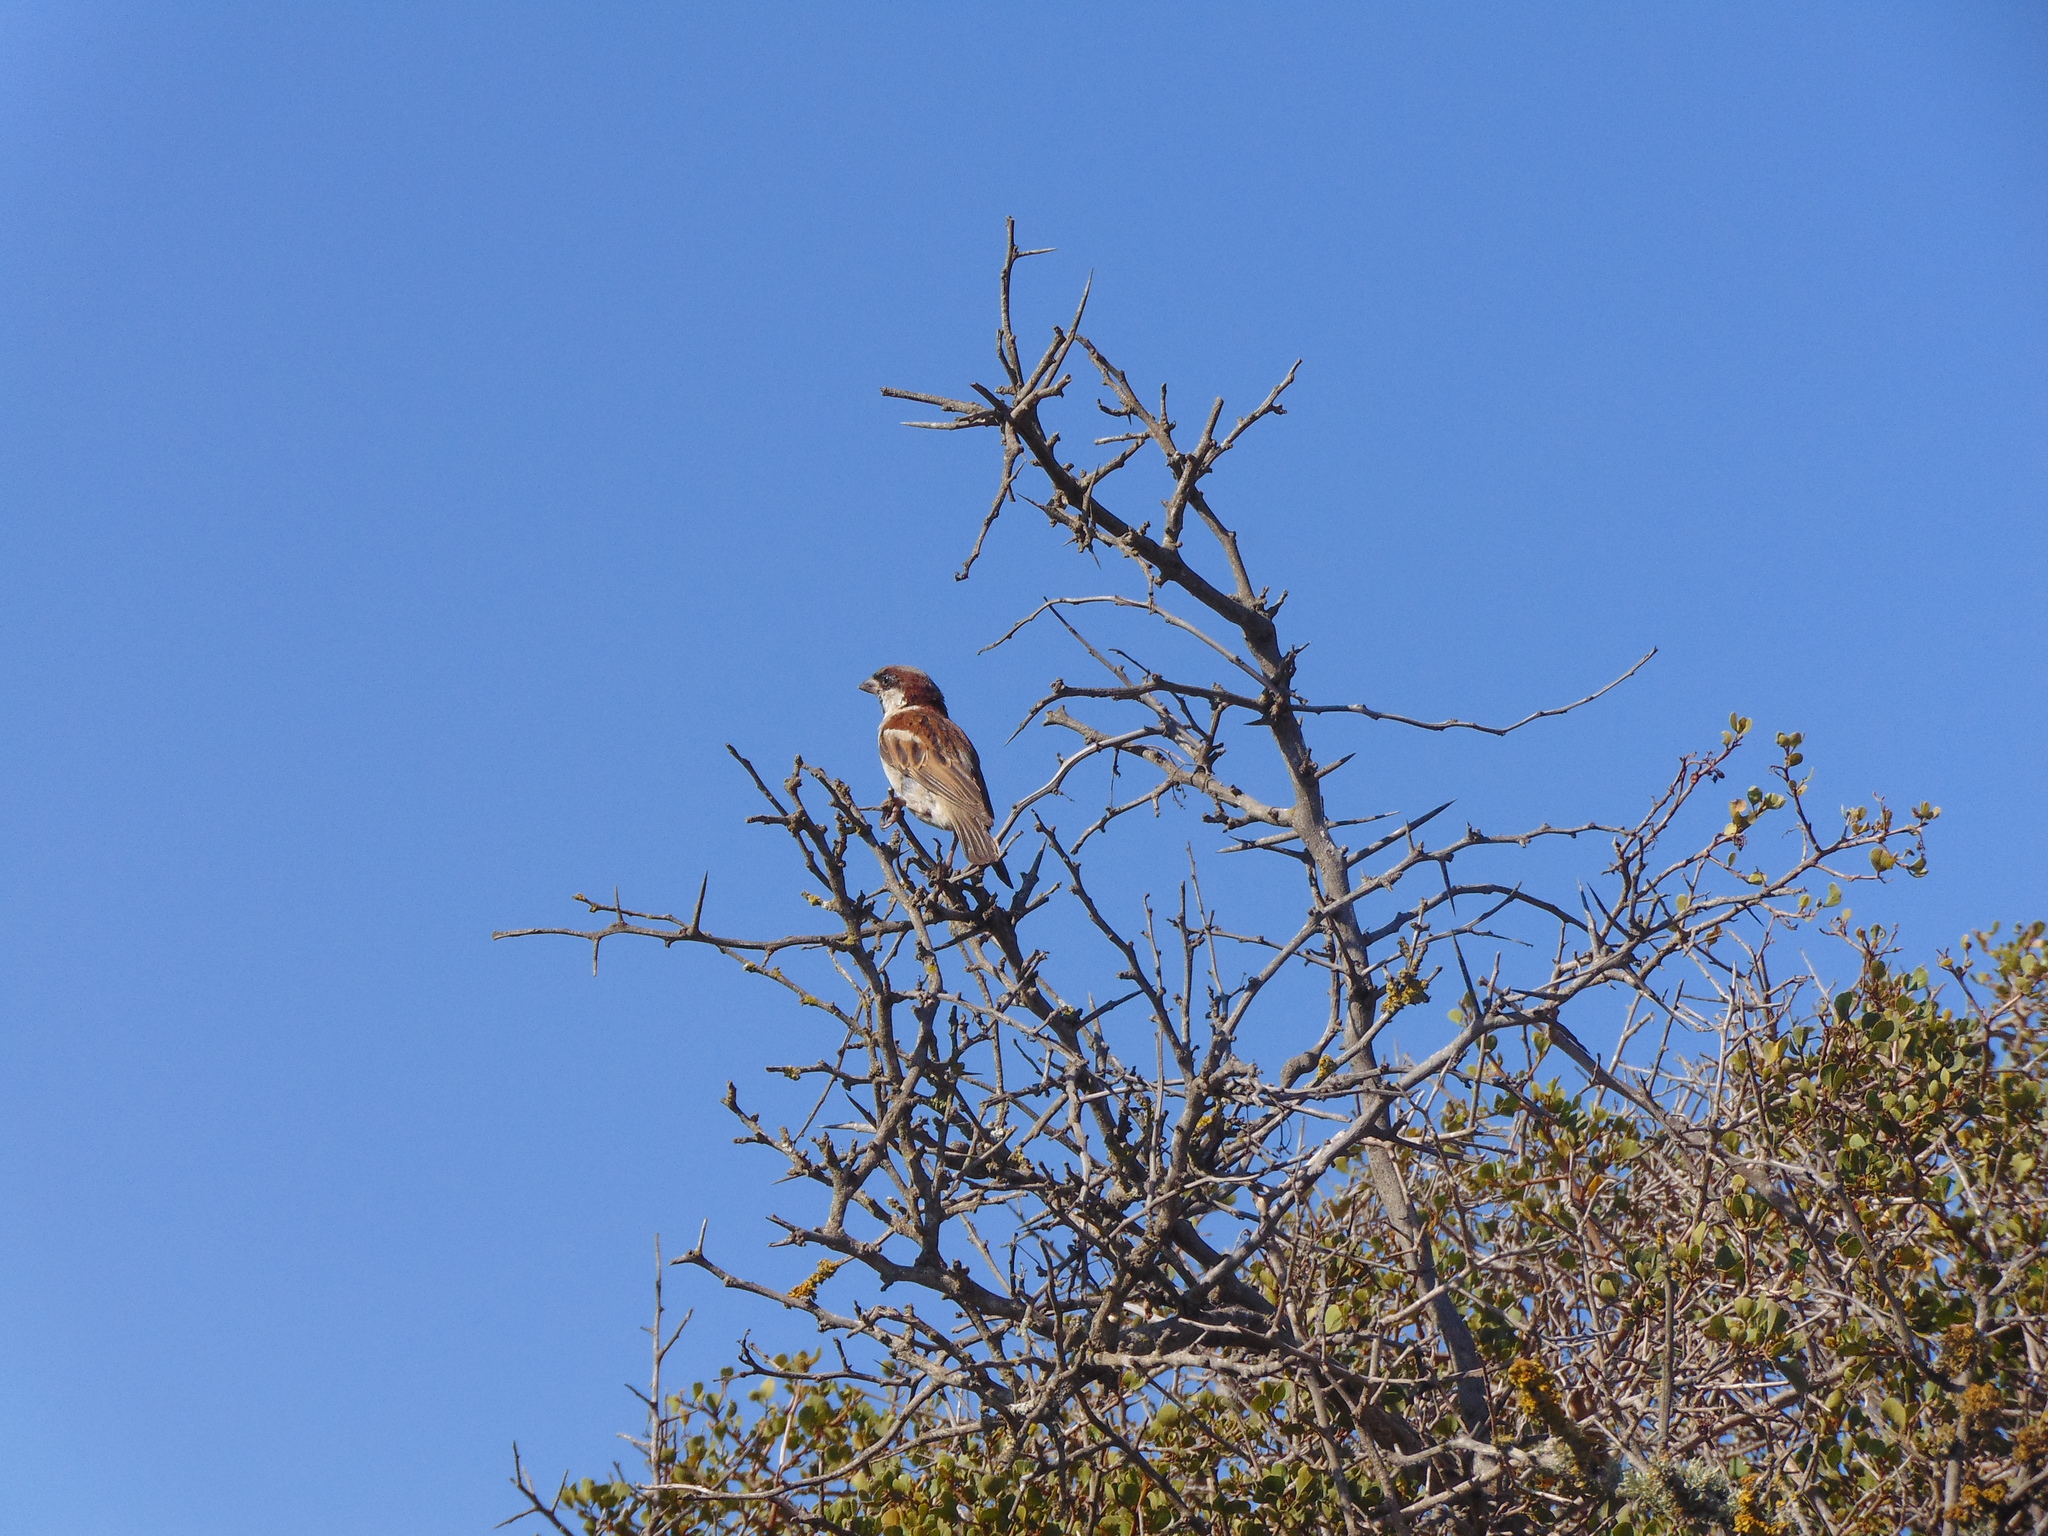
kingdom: Animalia
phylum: Chordata
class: Aves
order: Passeriformes
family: Passeridae
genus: Passer
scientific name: Passer domesticus
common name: House sparrow
